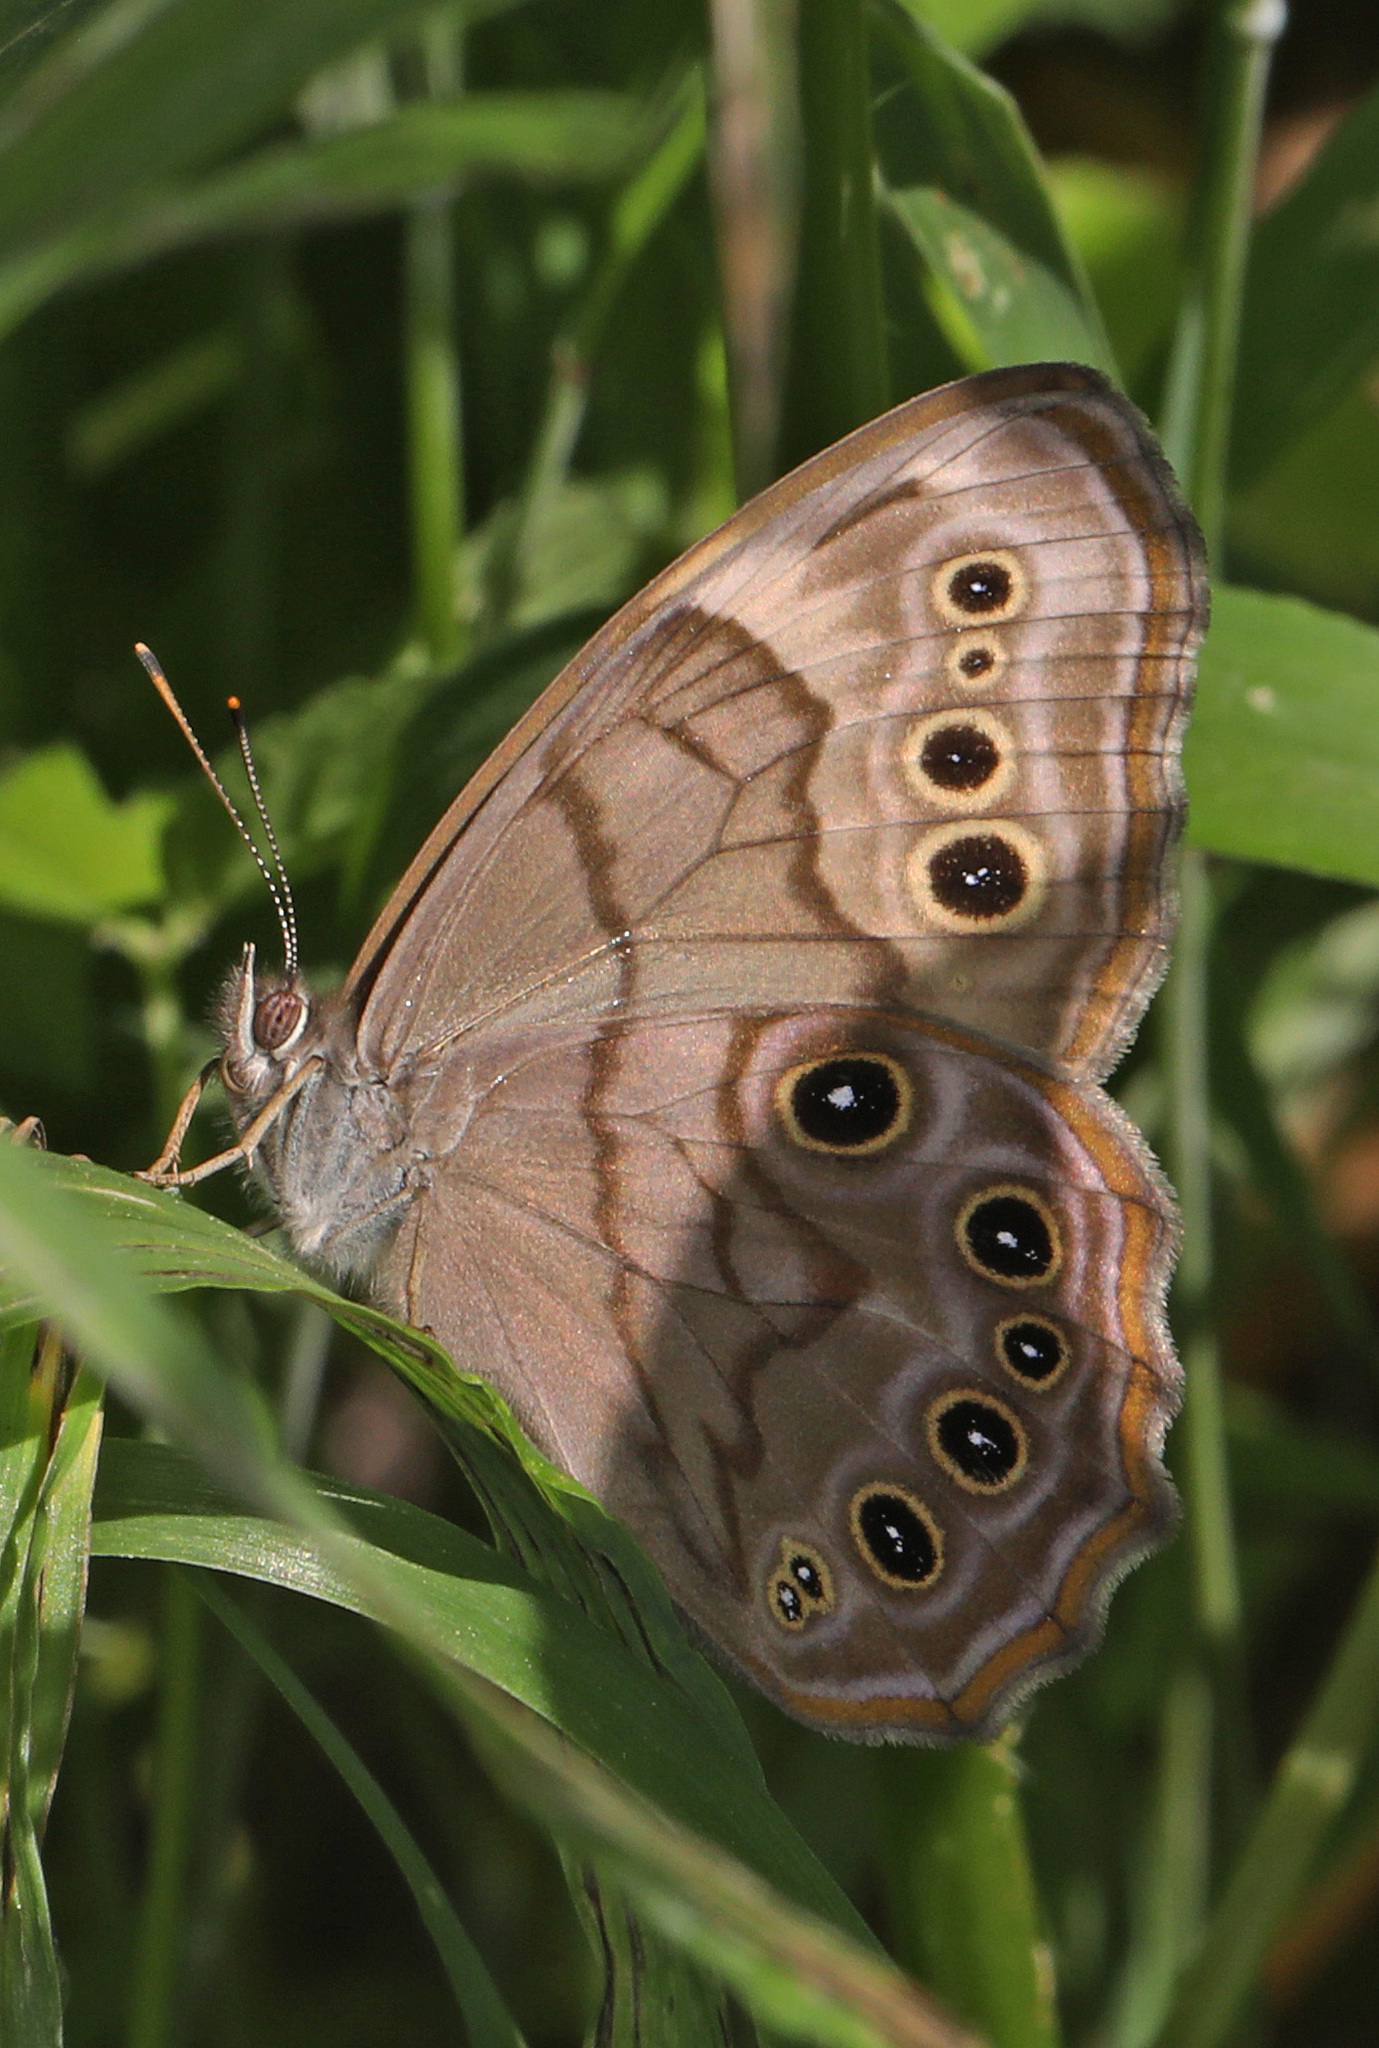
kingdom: Animalia
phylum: Arthropoda
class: Insecta
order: Lepidoptera
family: Nymphalidae
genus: Lethe
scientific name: Lethe anthedon
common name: Northern pearly-eye
